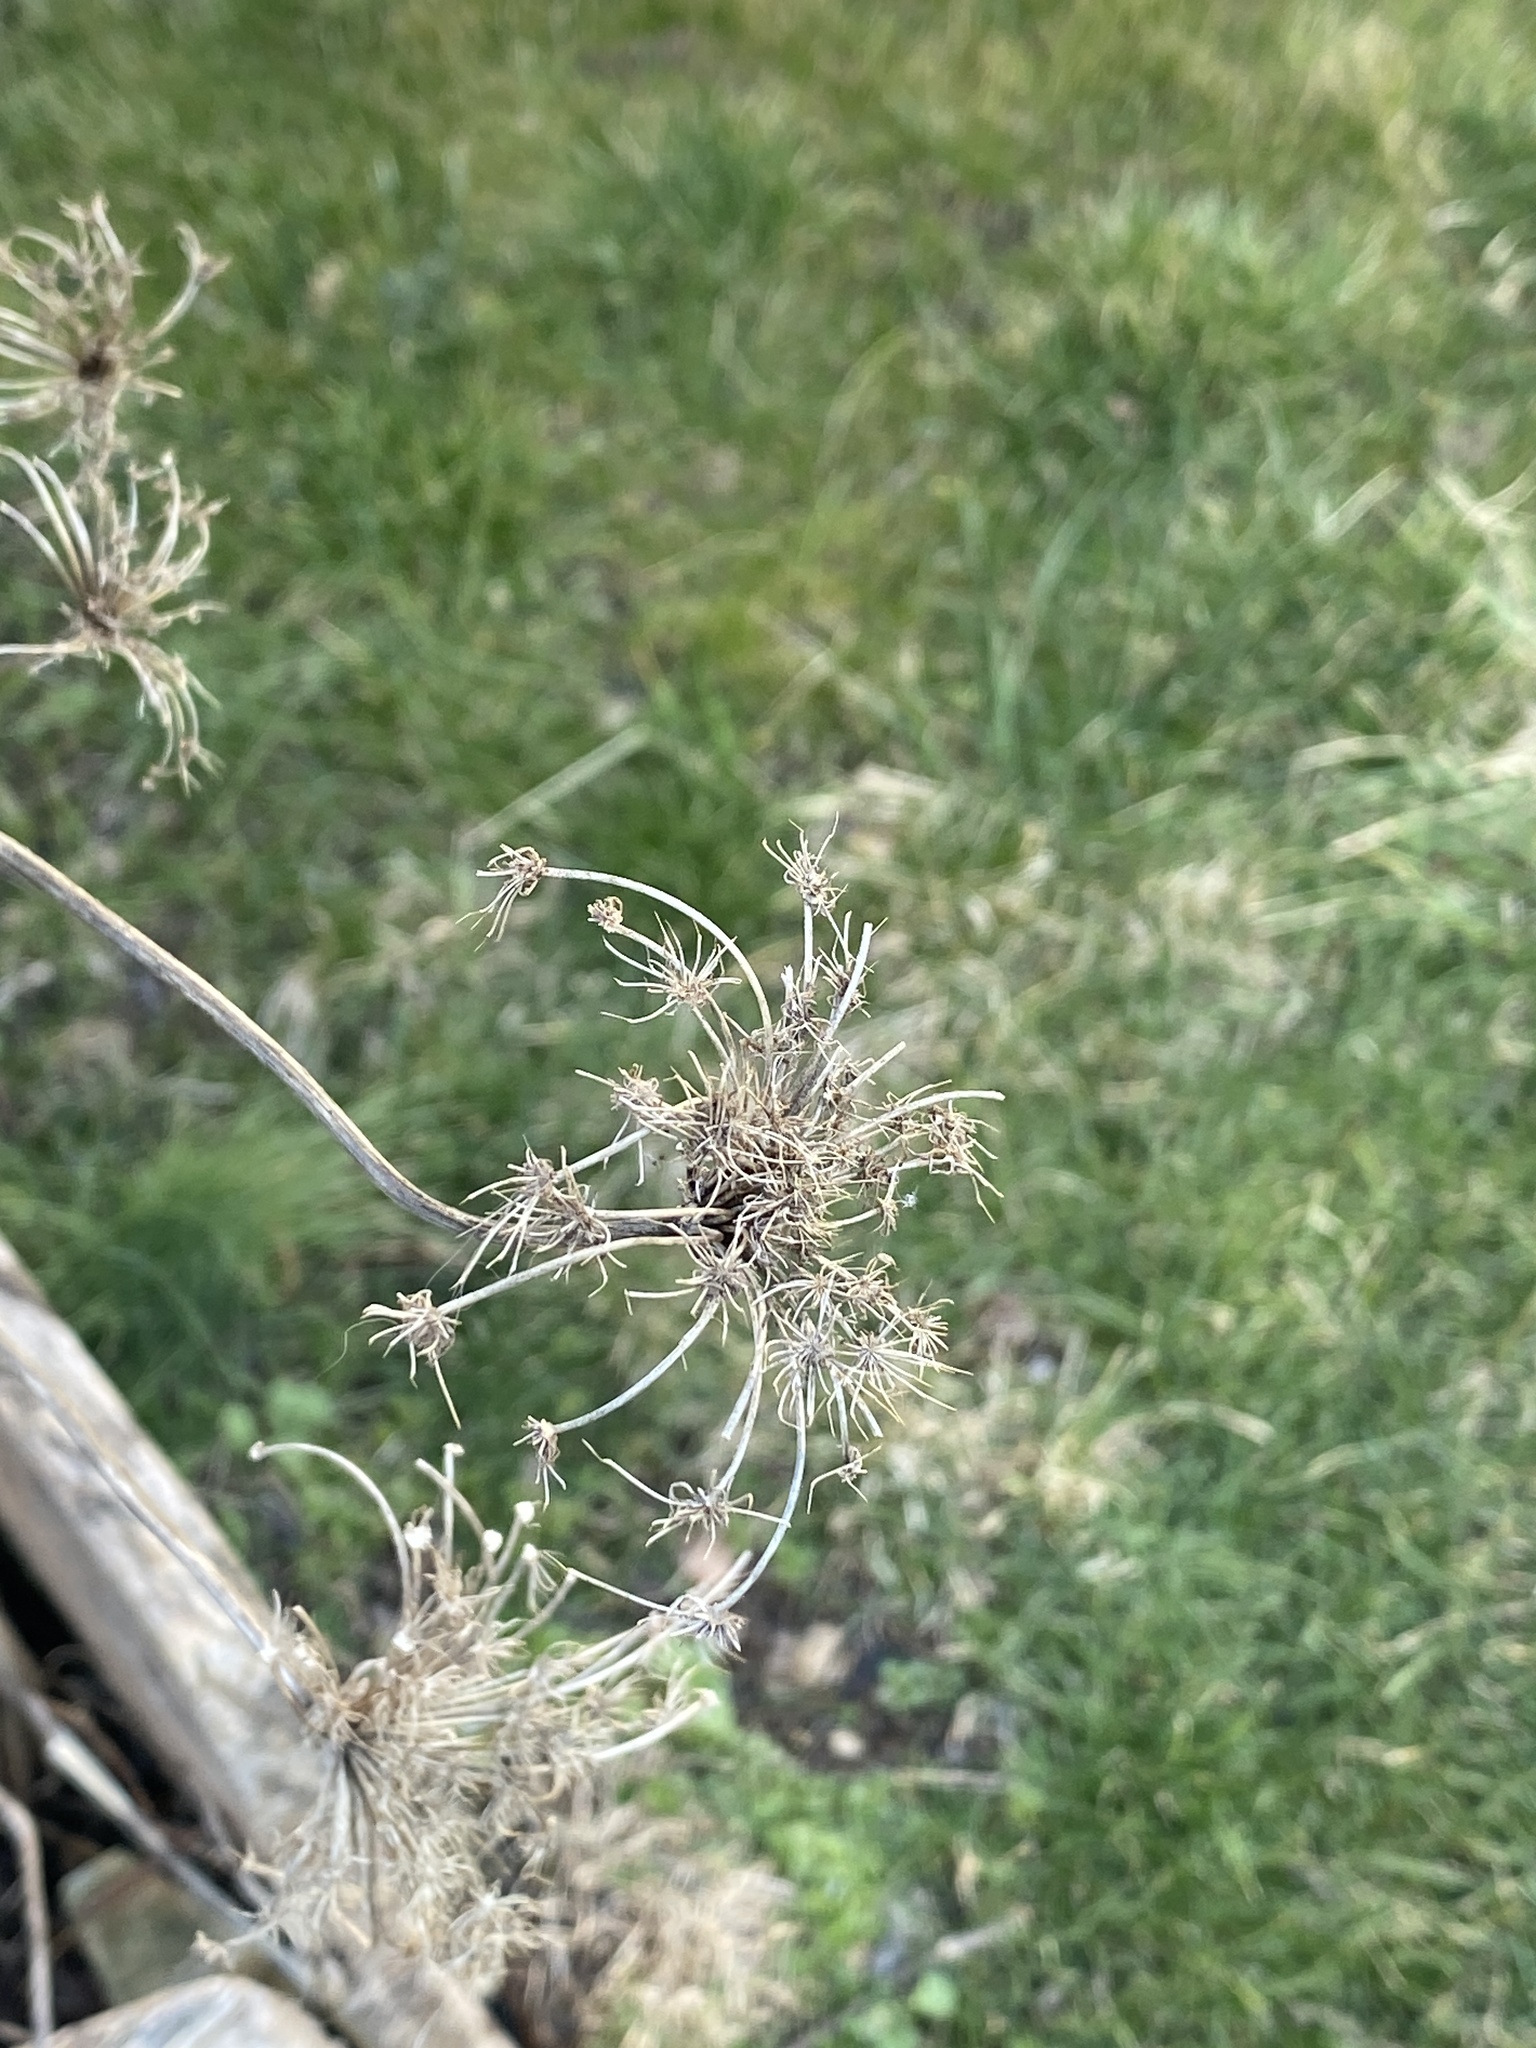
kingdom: Plantae
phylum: Tracheophyta
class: Magnoliopsida
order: Apiales
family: Apiaceae
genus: Daucus
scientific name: Daucus carota
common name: Wild carrot
